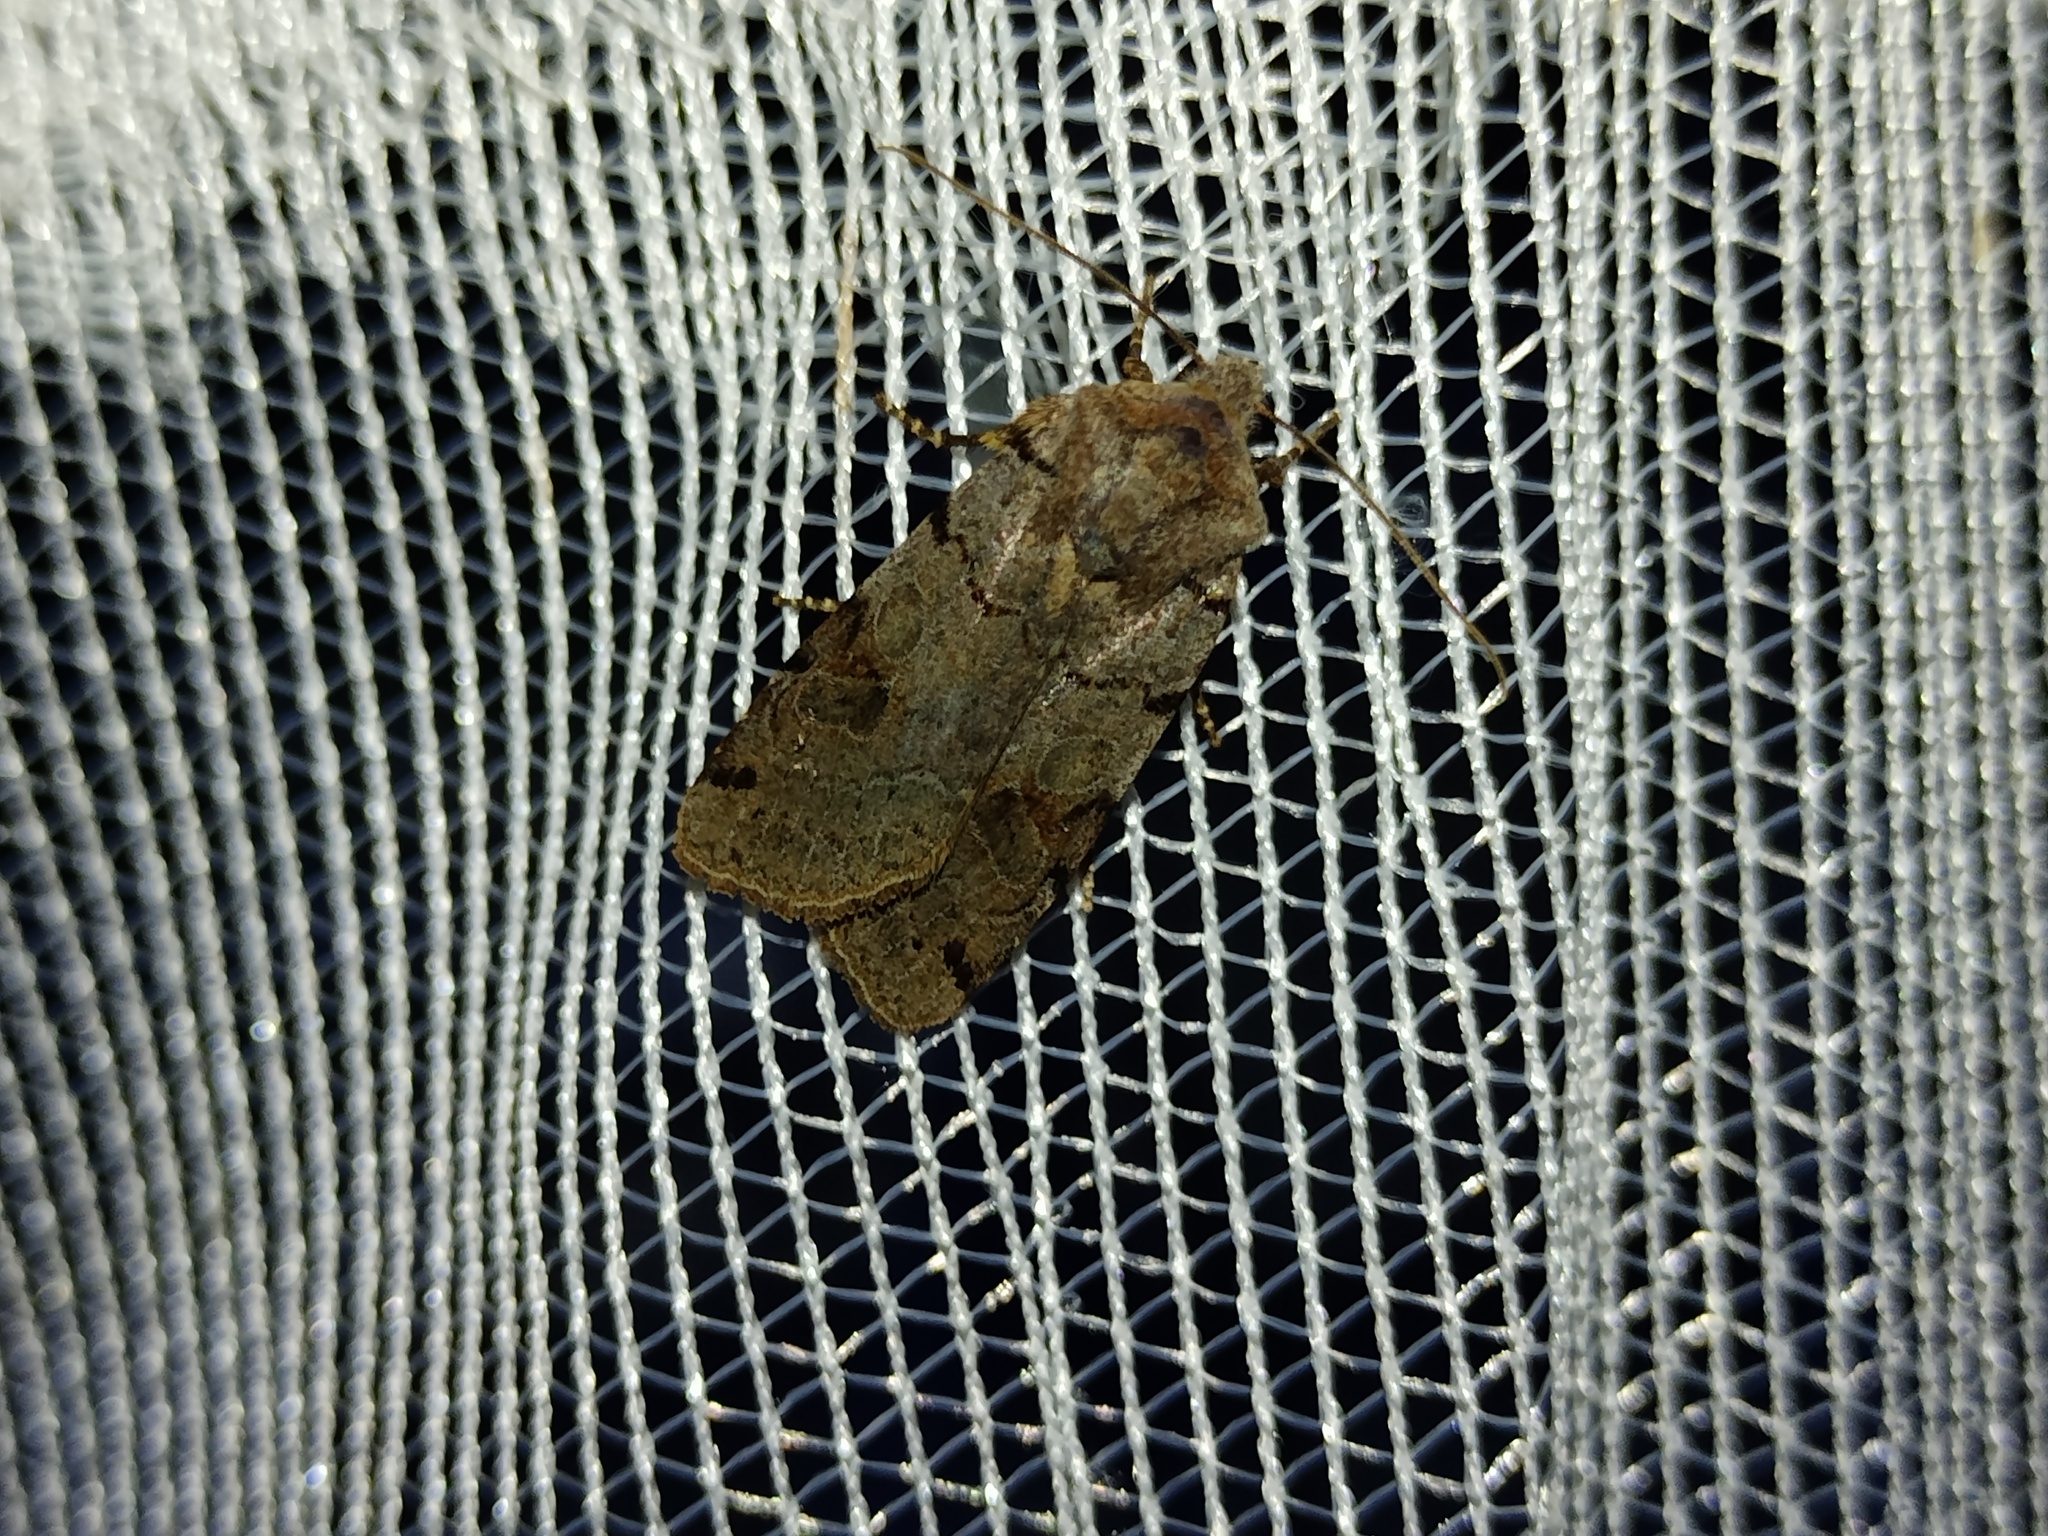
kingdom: Animalia
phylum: Arthropoda
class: Insecta
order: Lepidoptera
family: Noctuidae
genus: Agrochola
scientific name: Agrochola litura
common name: Brown-spot pinion
